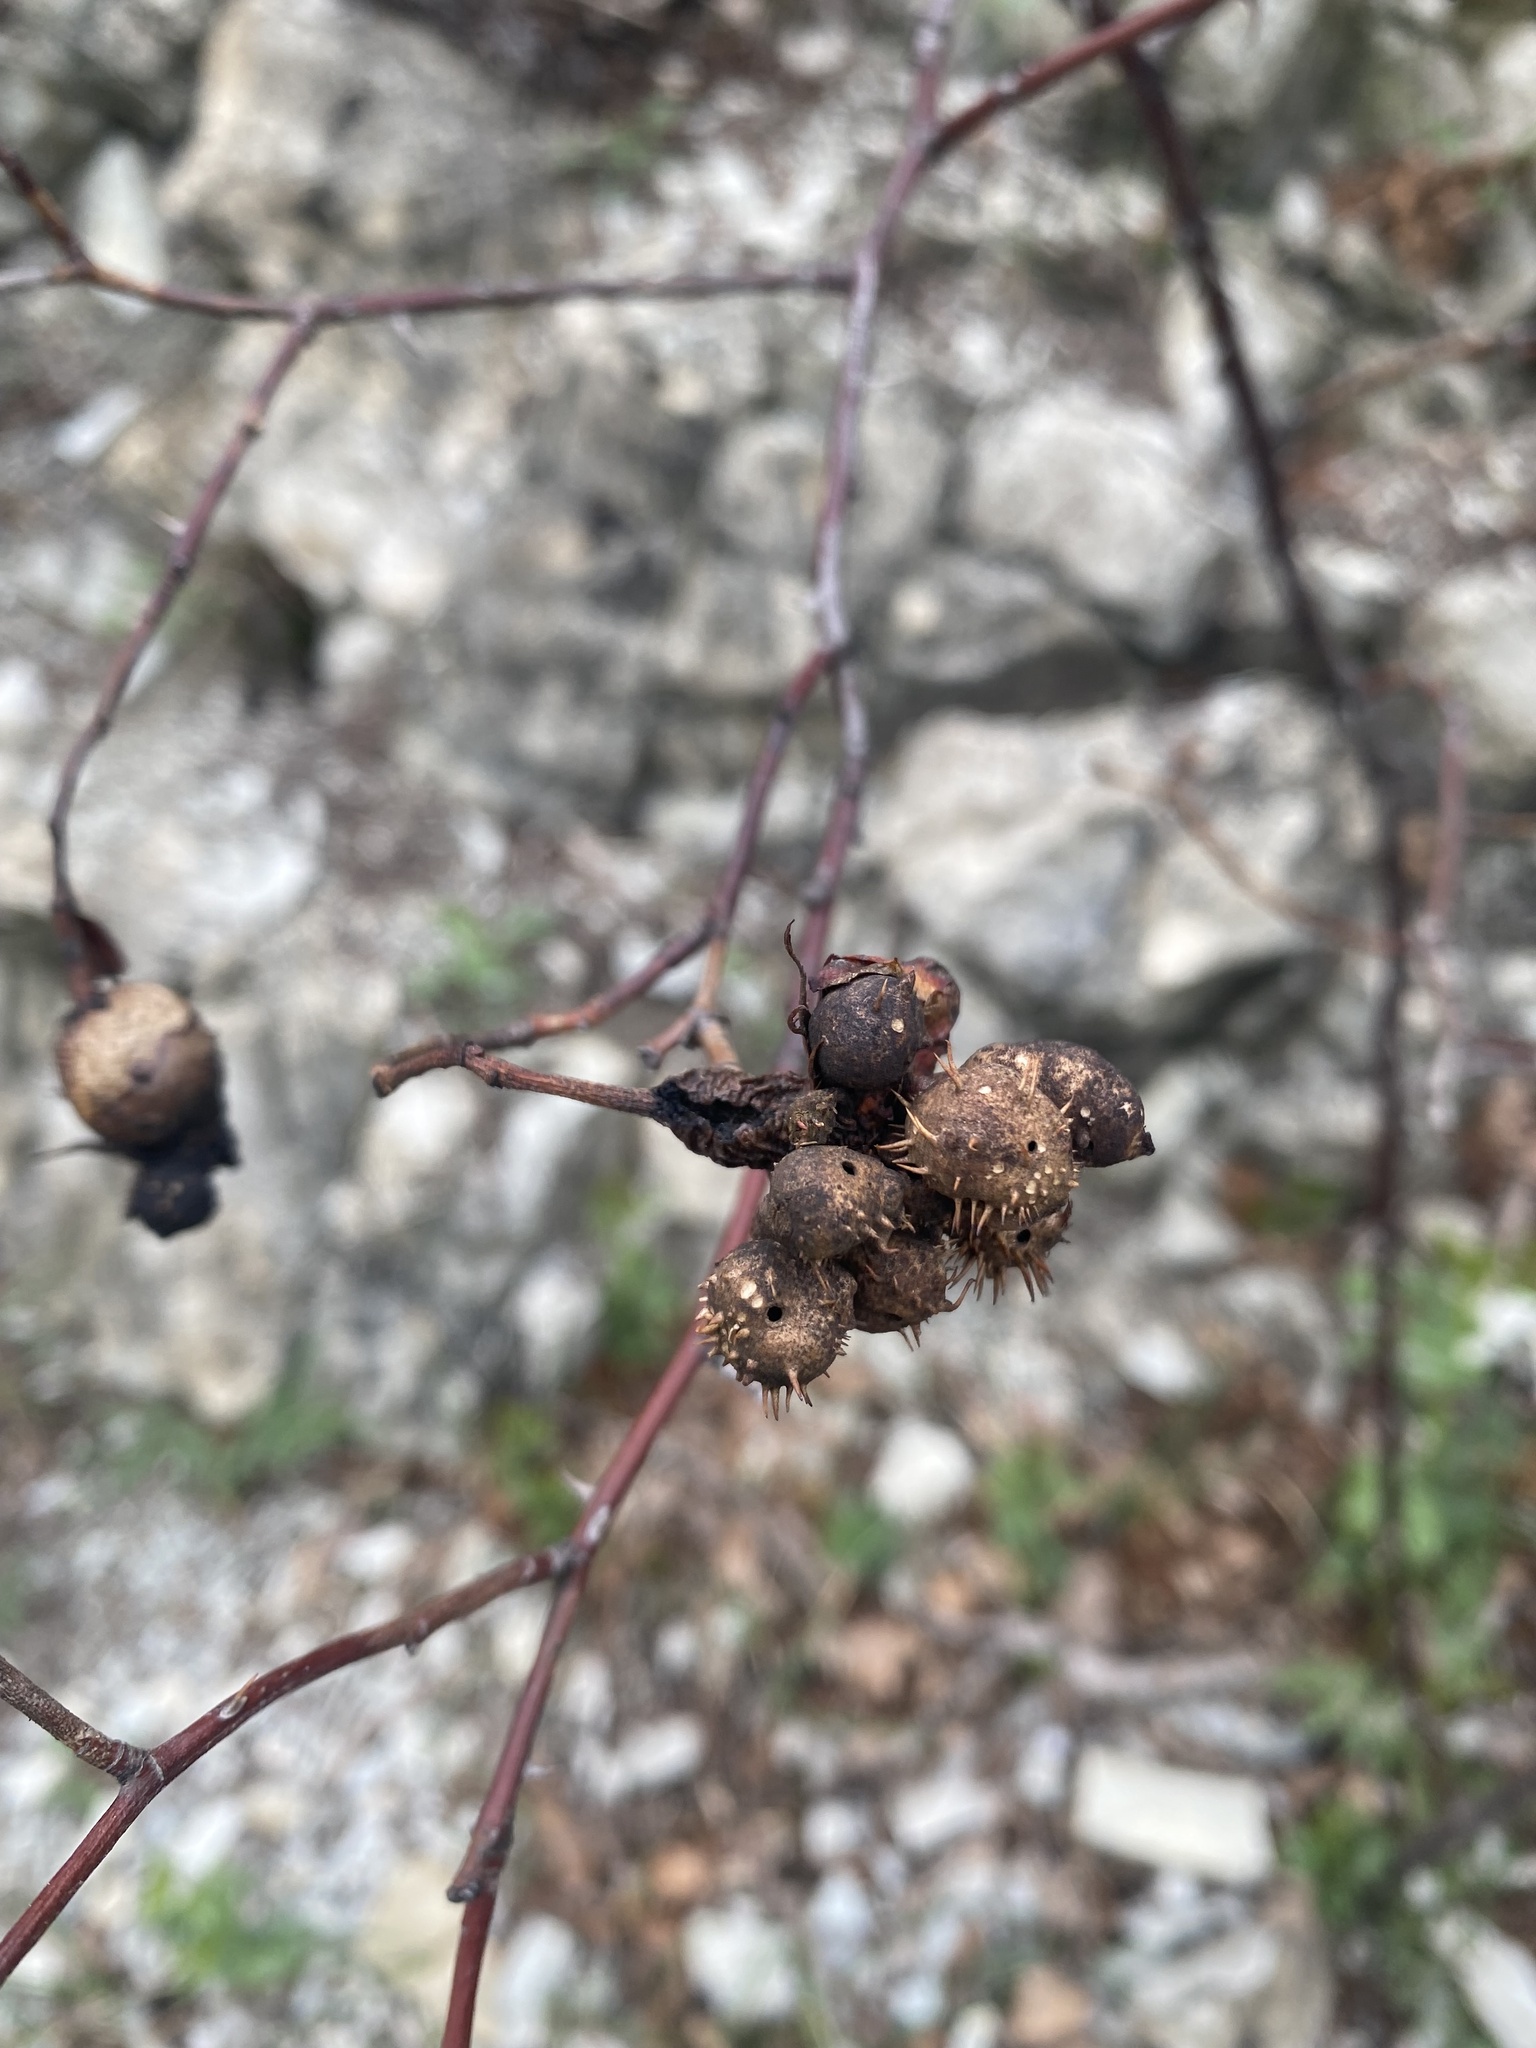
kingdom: Animalia
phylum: Arthropoda
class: Insecta
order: Hymenoptera
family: Cynipidae
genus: Diplolepis
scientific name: Diplolepis fructuum
